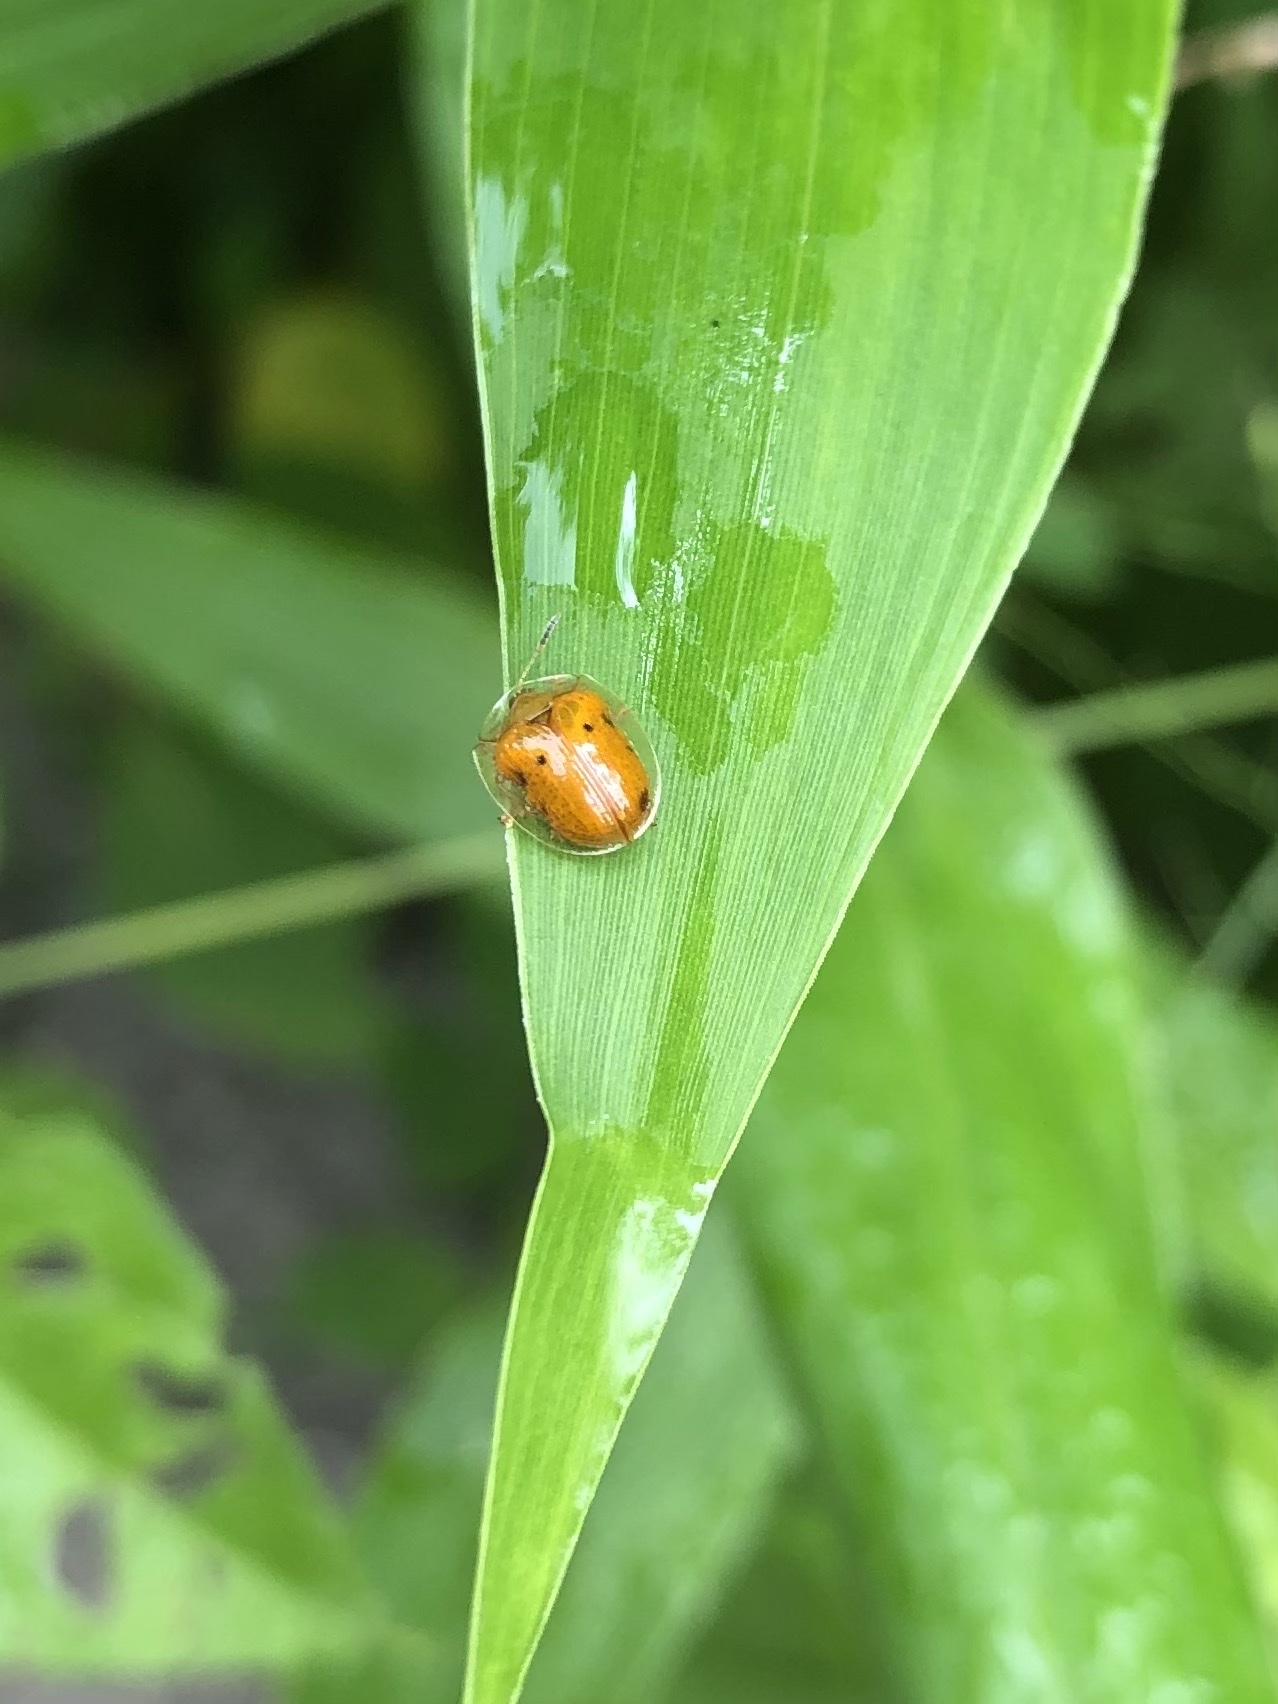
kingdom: Animalia
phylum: Arthropoda
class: Insecta
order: Coleoptera
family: Chrysomelidae
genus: Charidotella
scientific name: Charidotella sexpunctata
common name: Golden tortoise beetle
